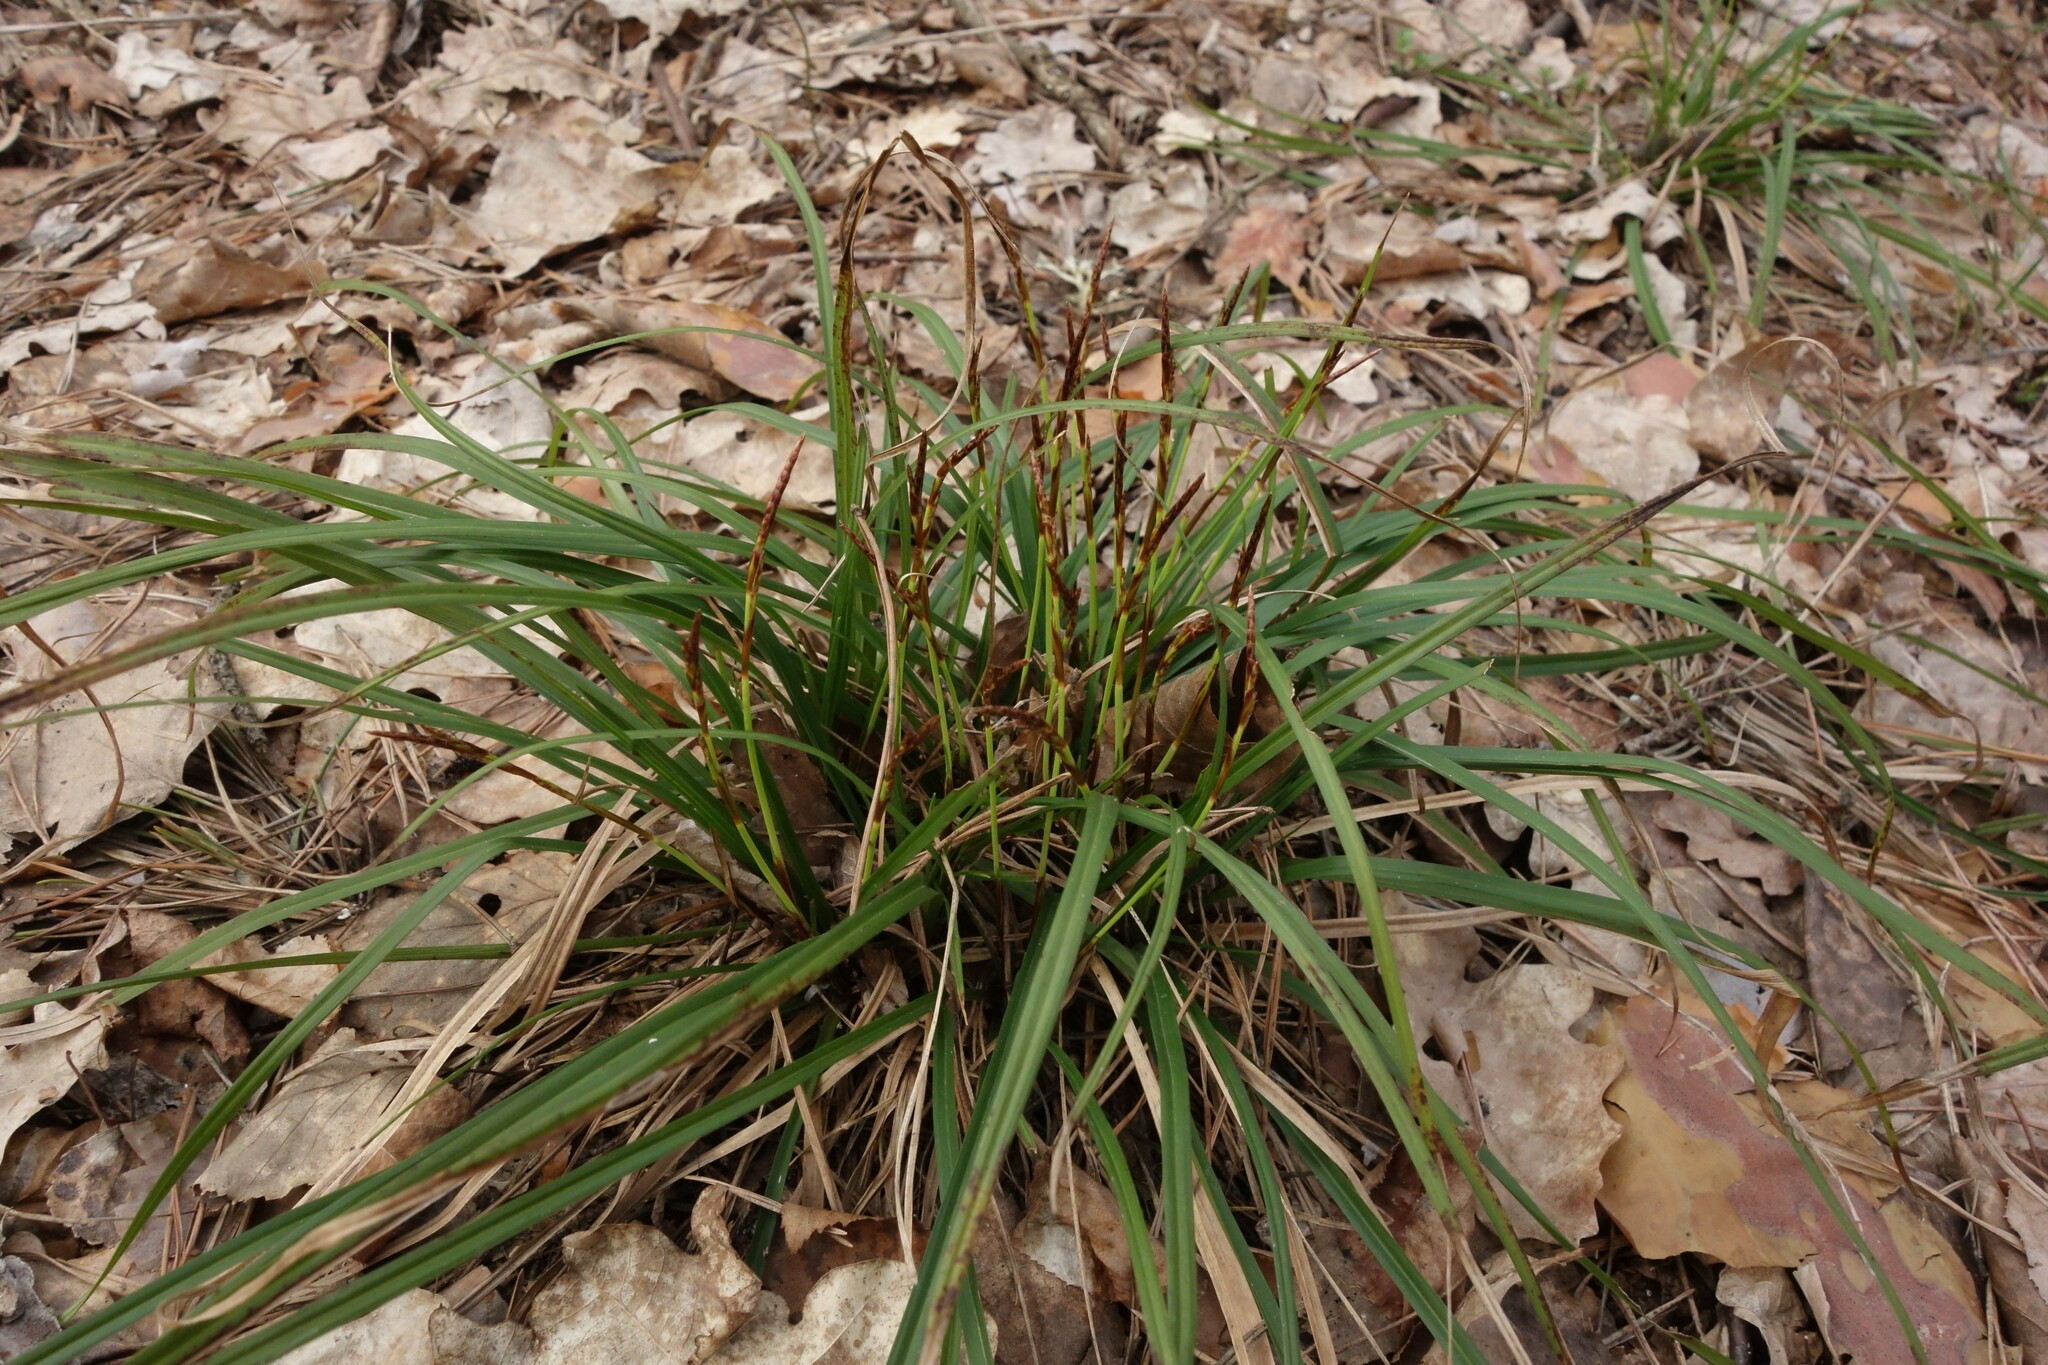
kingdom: Plantae
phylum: Tracheophyta
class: Liliopsida
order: Poales
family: Cyperaceae
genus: Carex
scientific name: Carex digitata
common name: Fingered sedge
